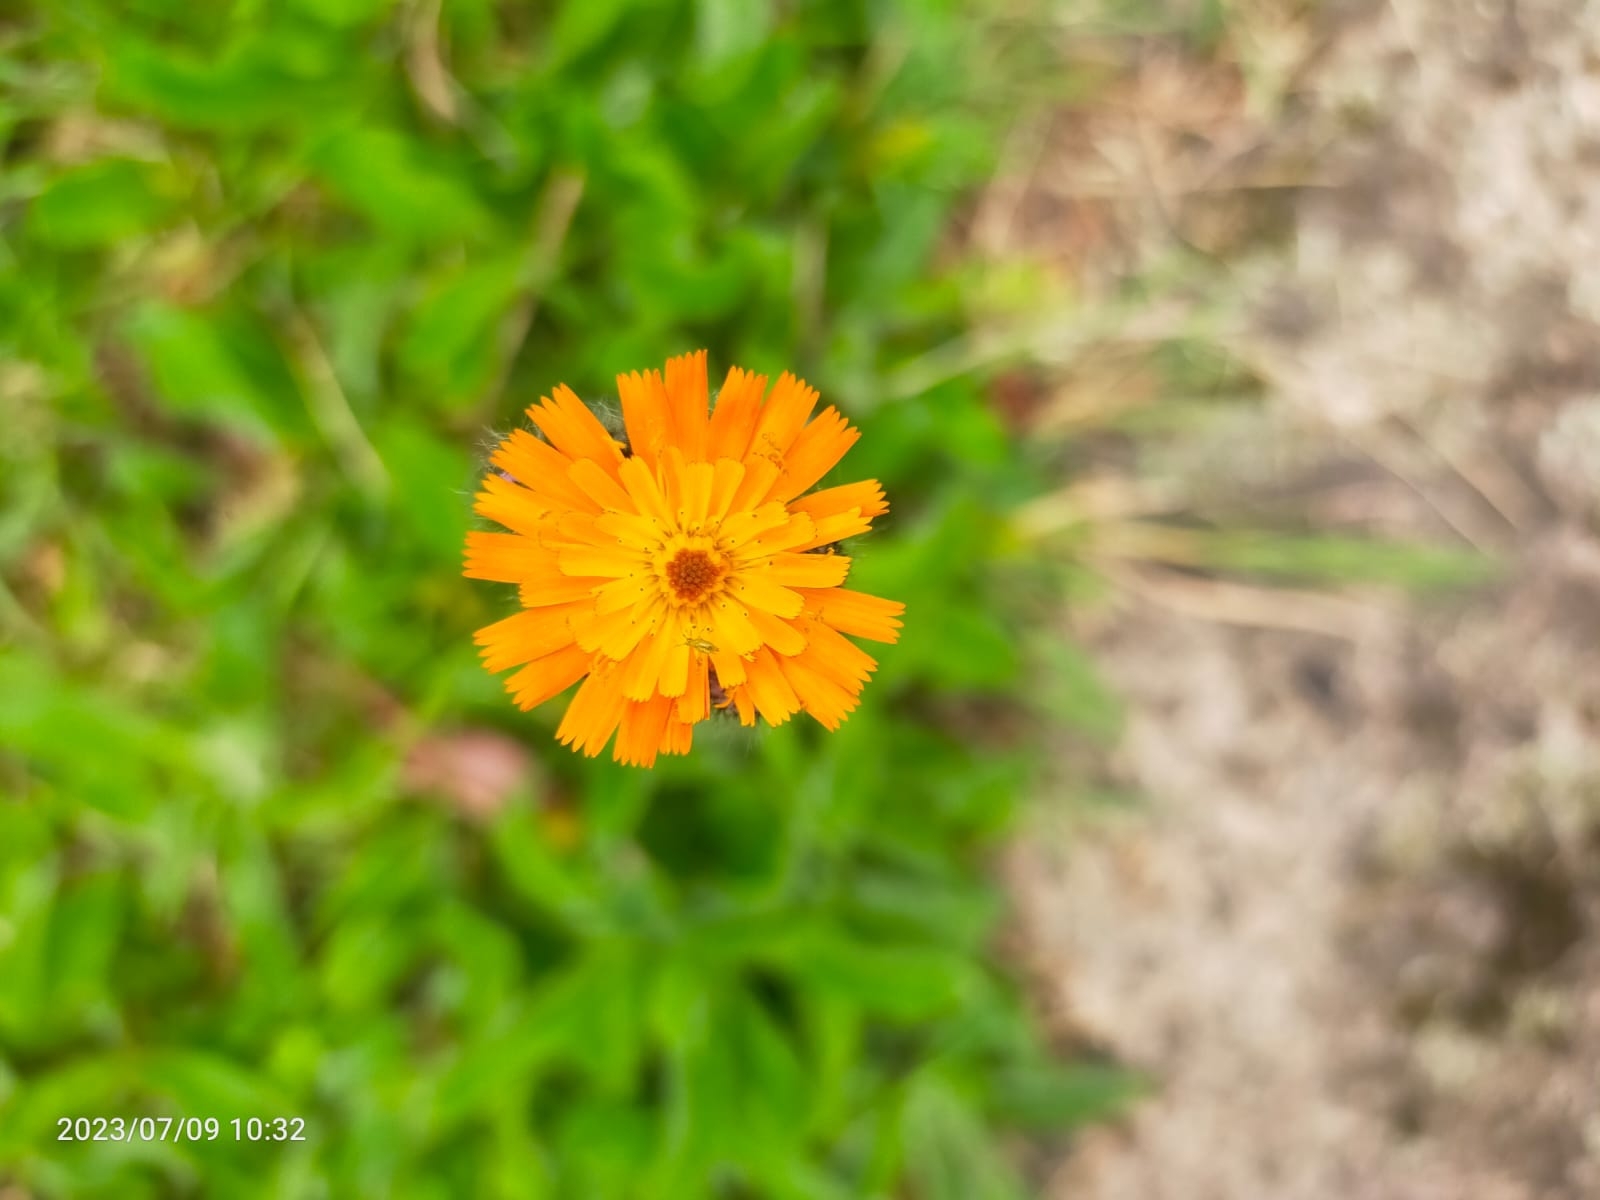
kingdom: Plantae
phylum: Tracheophyta
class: Magnoliopsida
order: Asterales
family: Asteraceae
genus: Calendula
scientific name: Calendula officinalis
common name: Pot marigold
